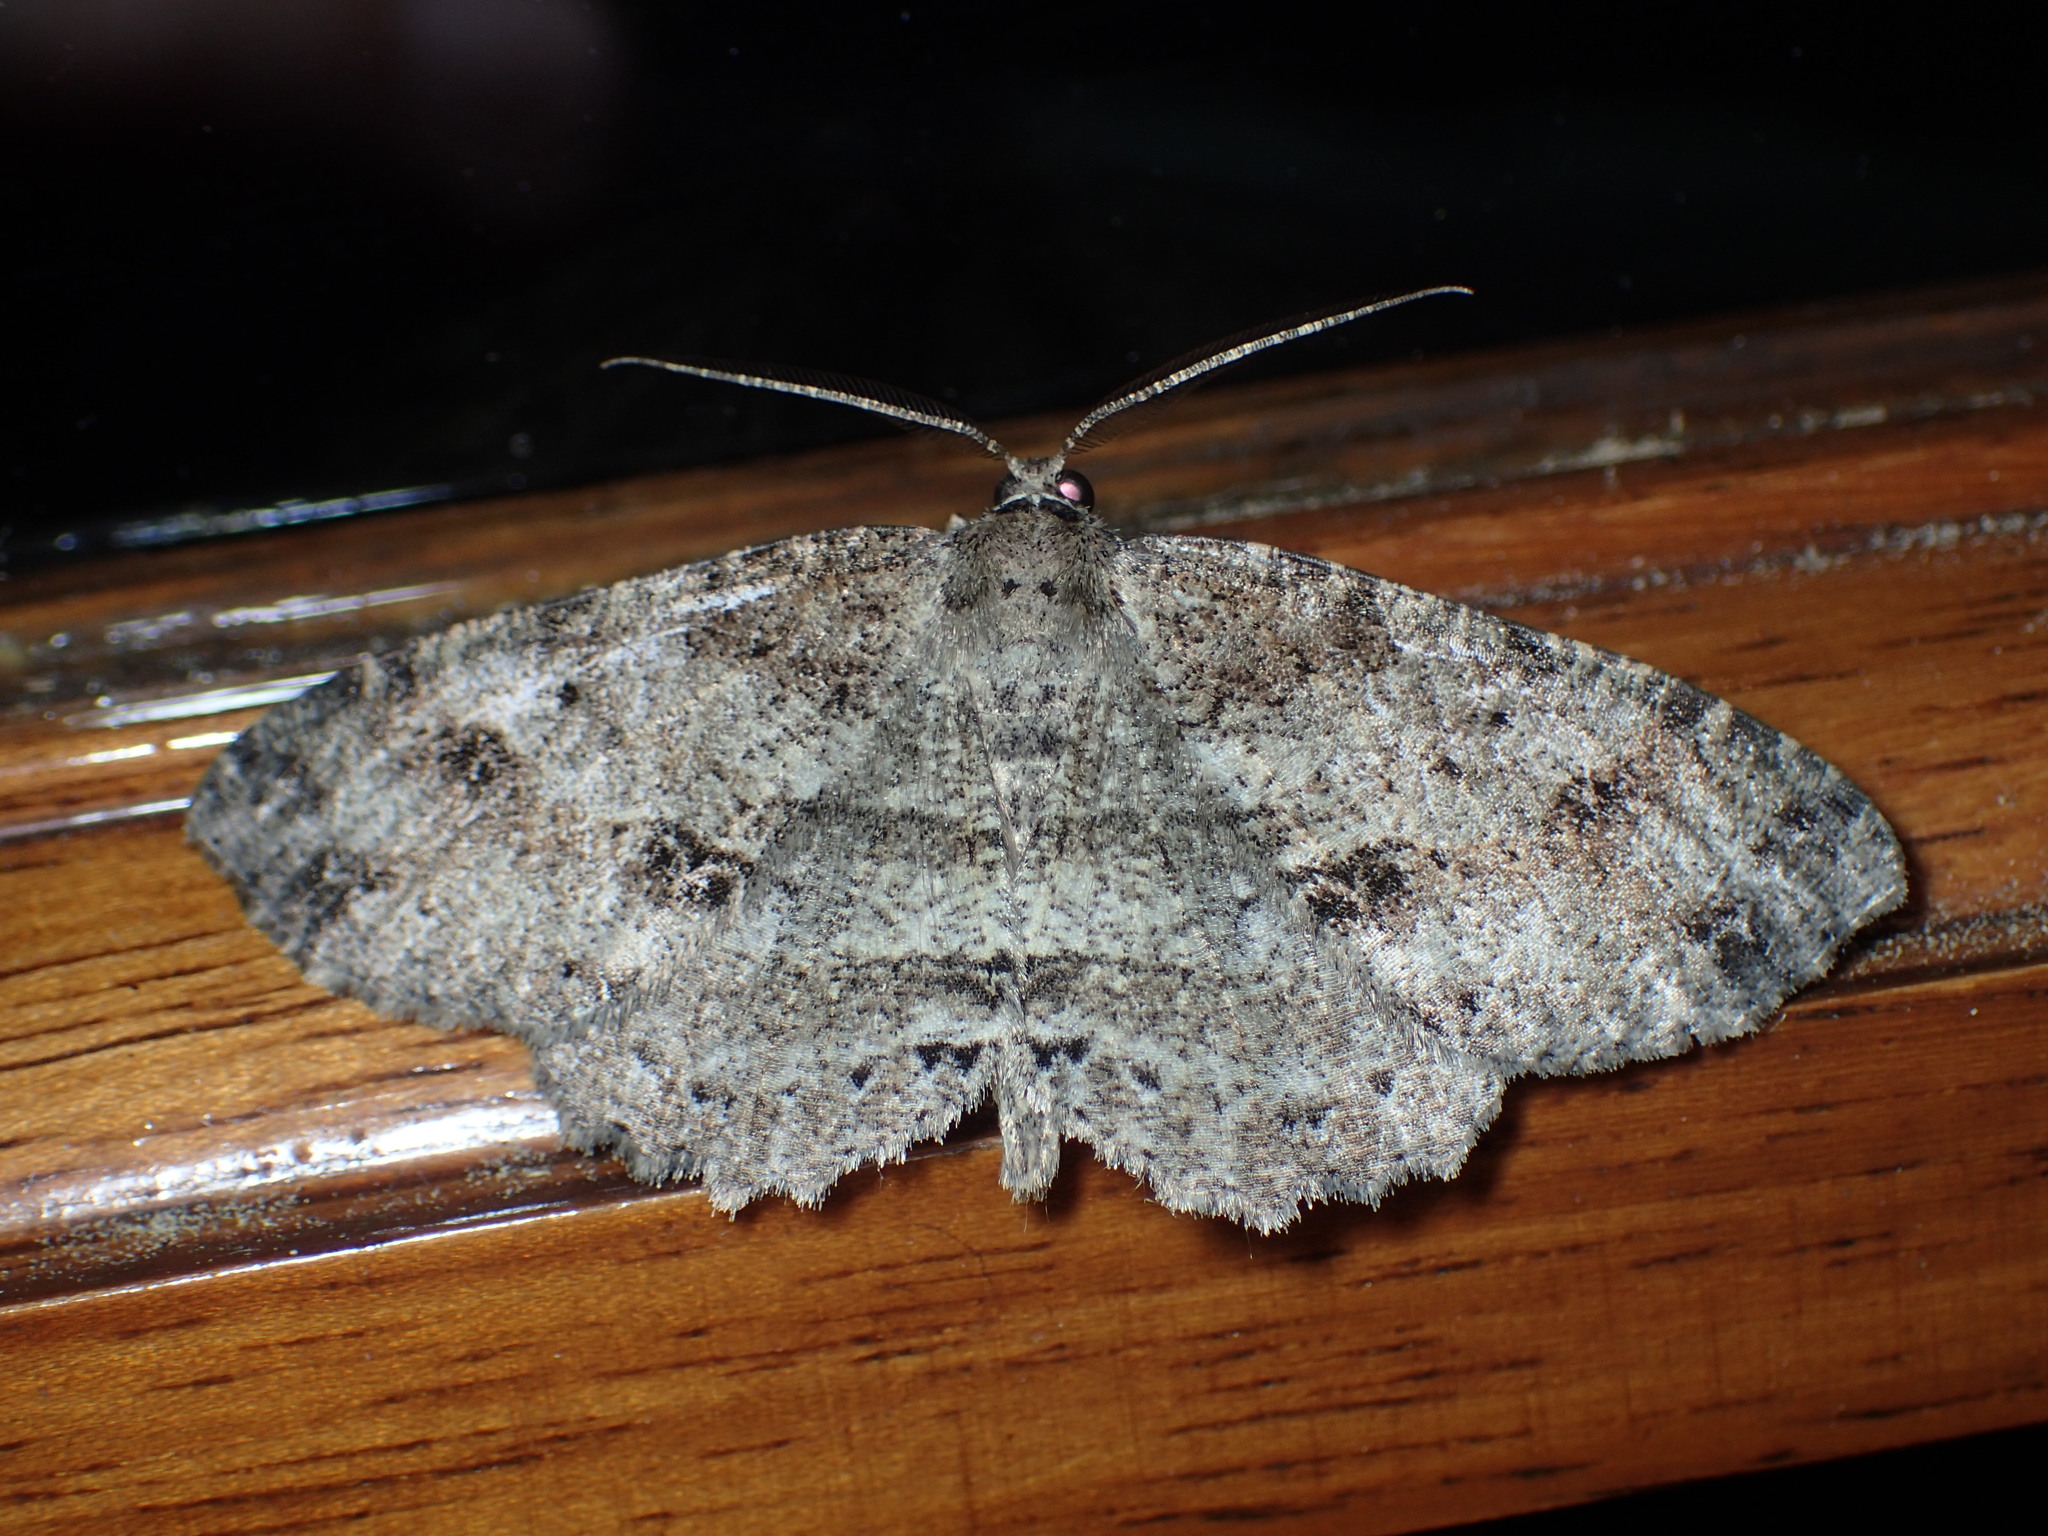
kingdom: Animalia
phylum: Arthropoda
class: Insecta
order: Lepidoptera
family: Geometridae
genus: Melanolophia
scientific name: Melanolophia canadaria
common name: Canadian melanolophia
